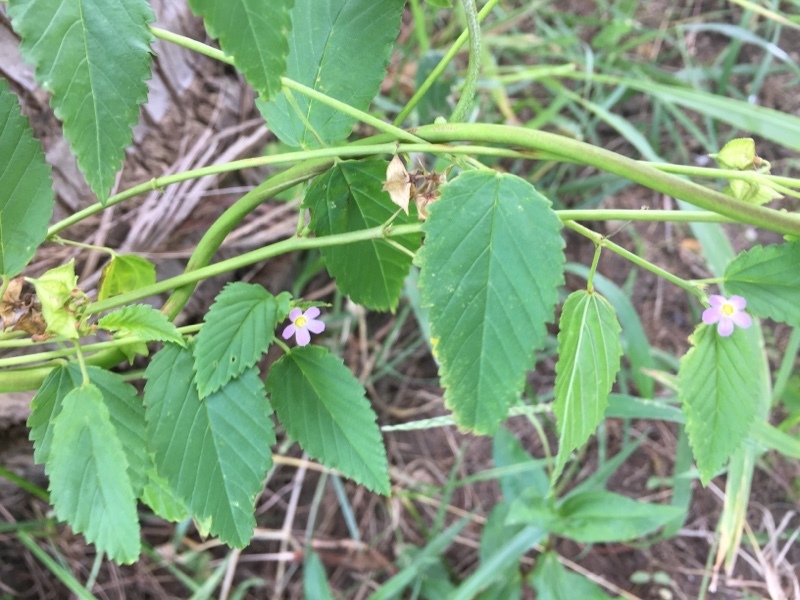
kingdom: Plantae
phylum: Tracheophyta
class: Magnoliopsida
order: Malvales
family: Malvaceae
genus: Melochia
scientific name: Melochia pyramidata
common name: Pyramidflower
